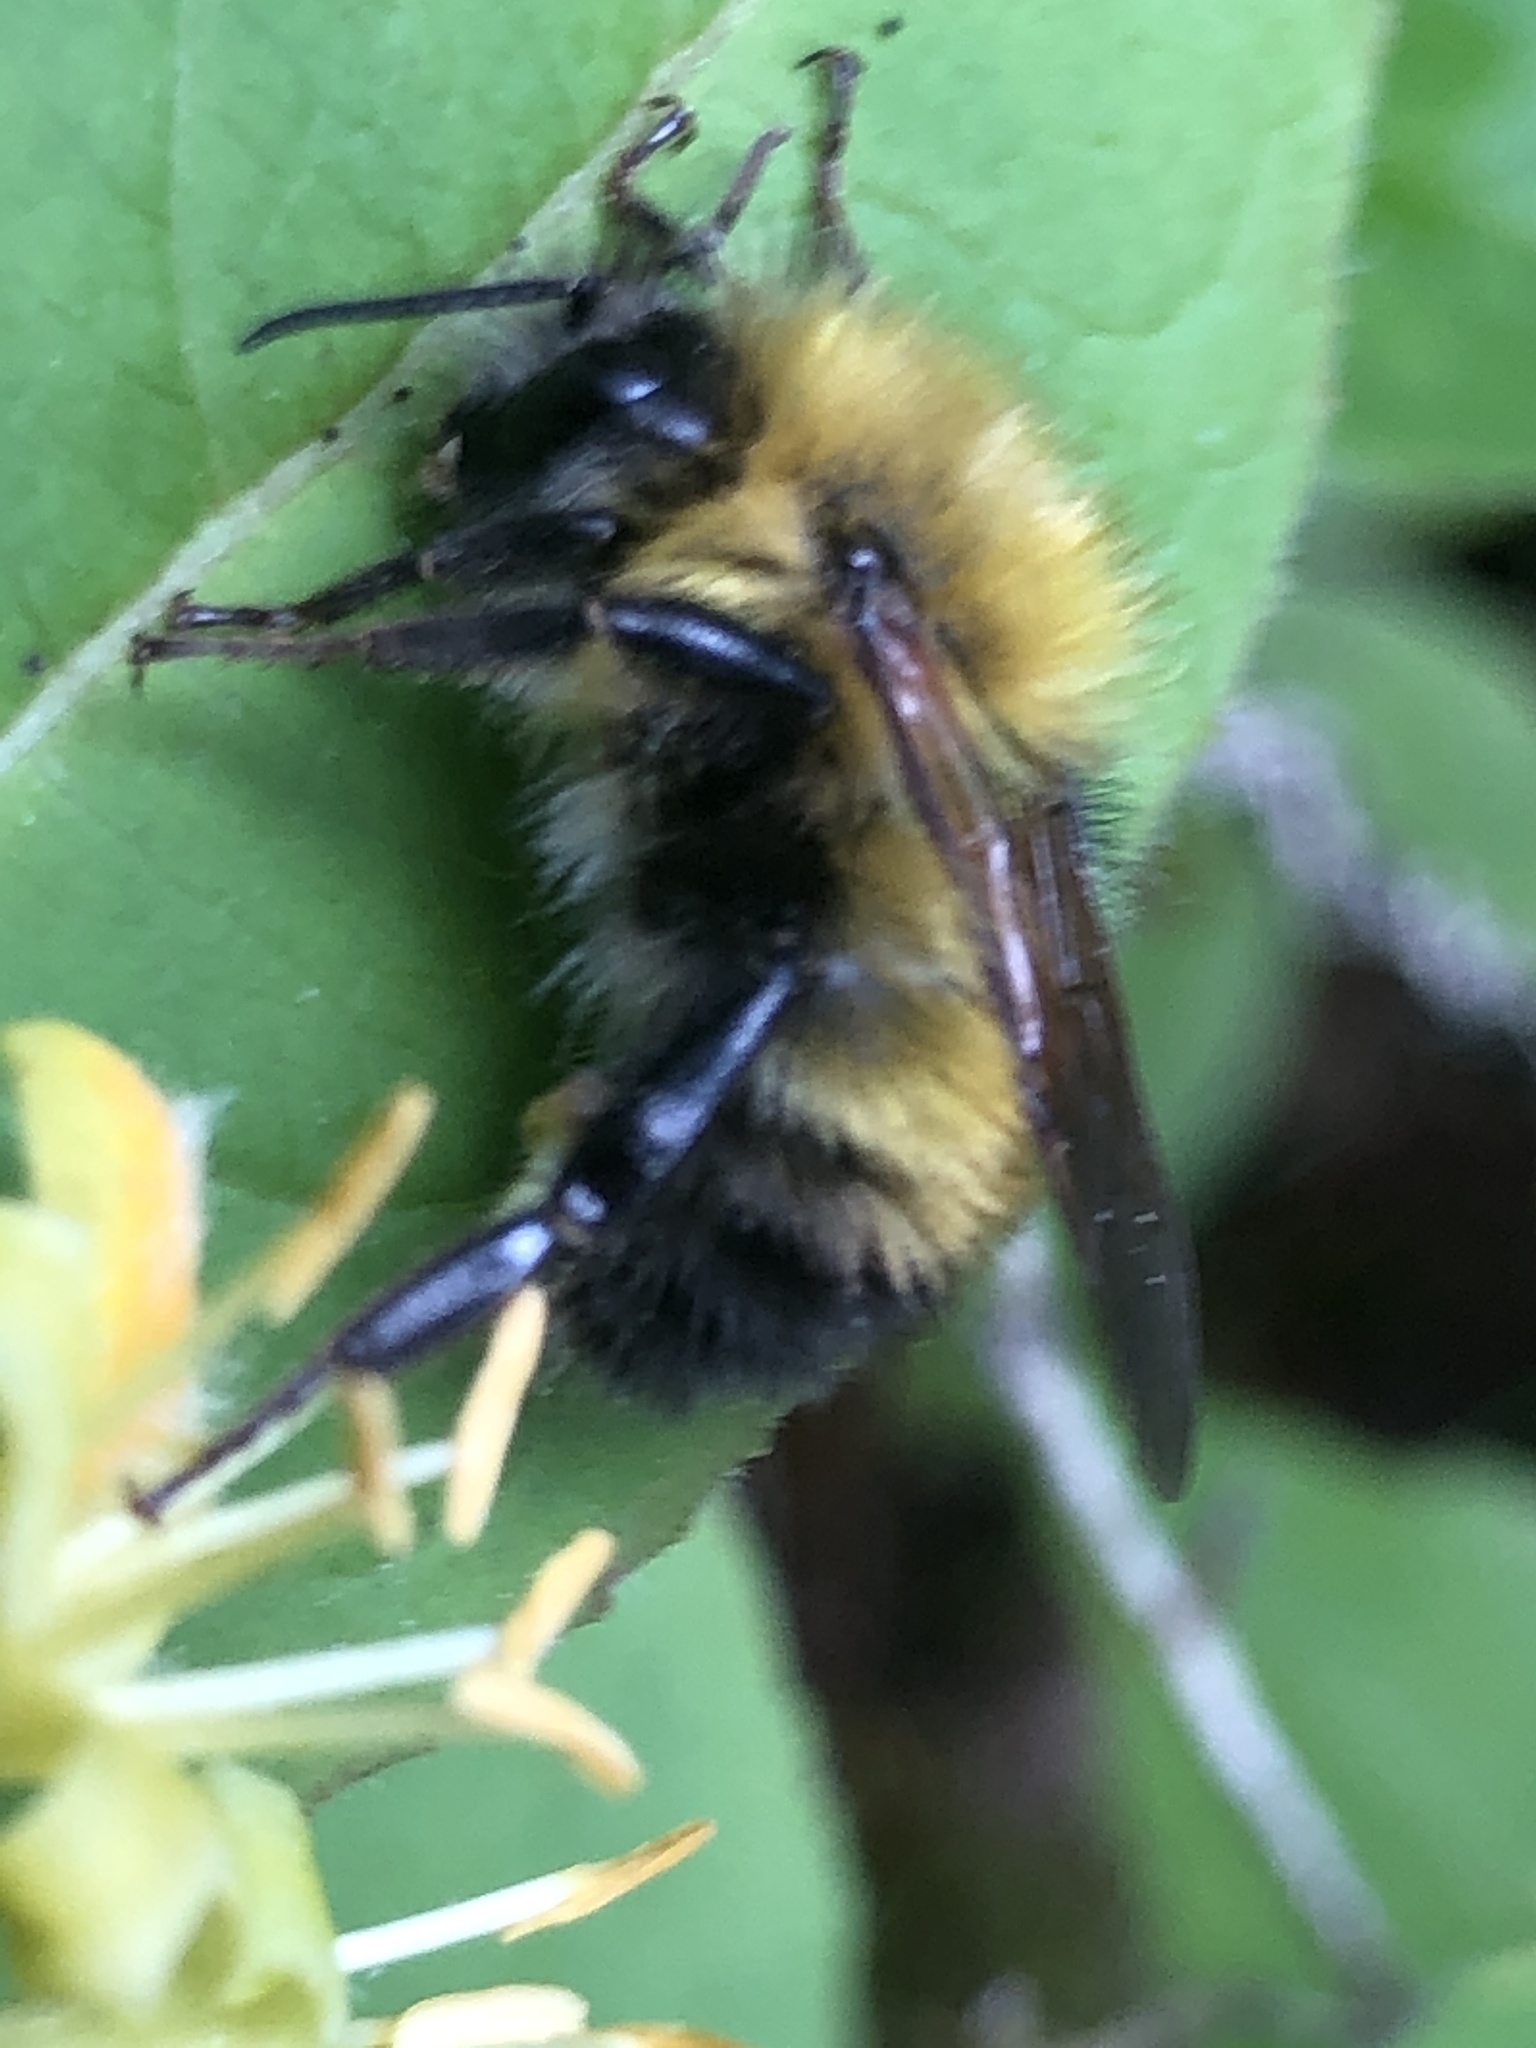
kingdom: Animalia
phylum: Arthropoda
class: Insecta
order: Hymenoptera
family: Apidae
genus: Bombus
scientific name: Bombus perplexus
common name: Confusing bumble bee
